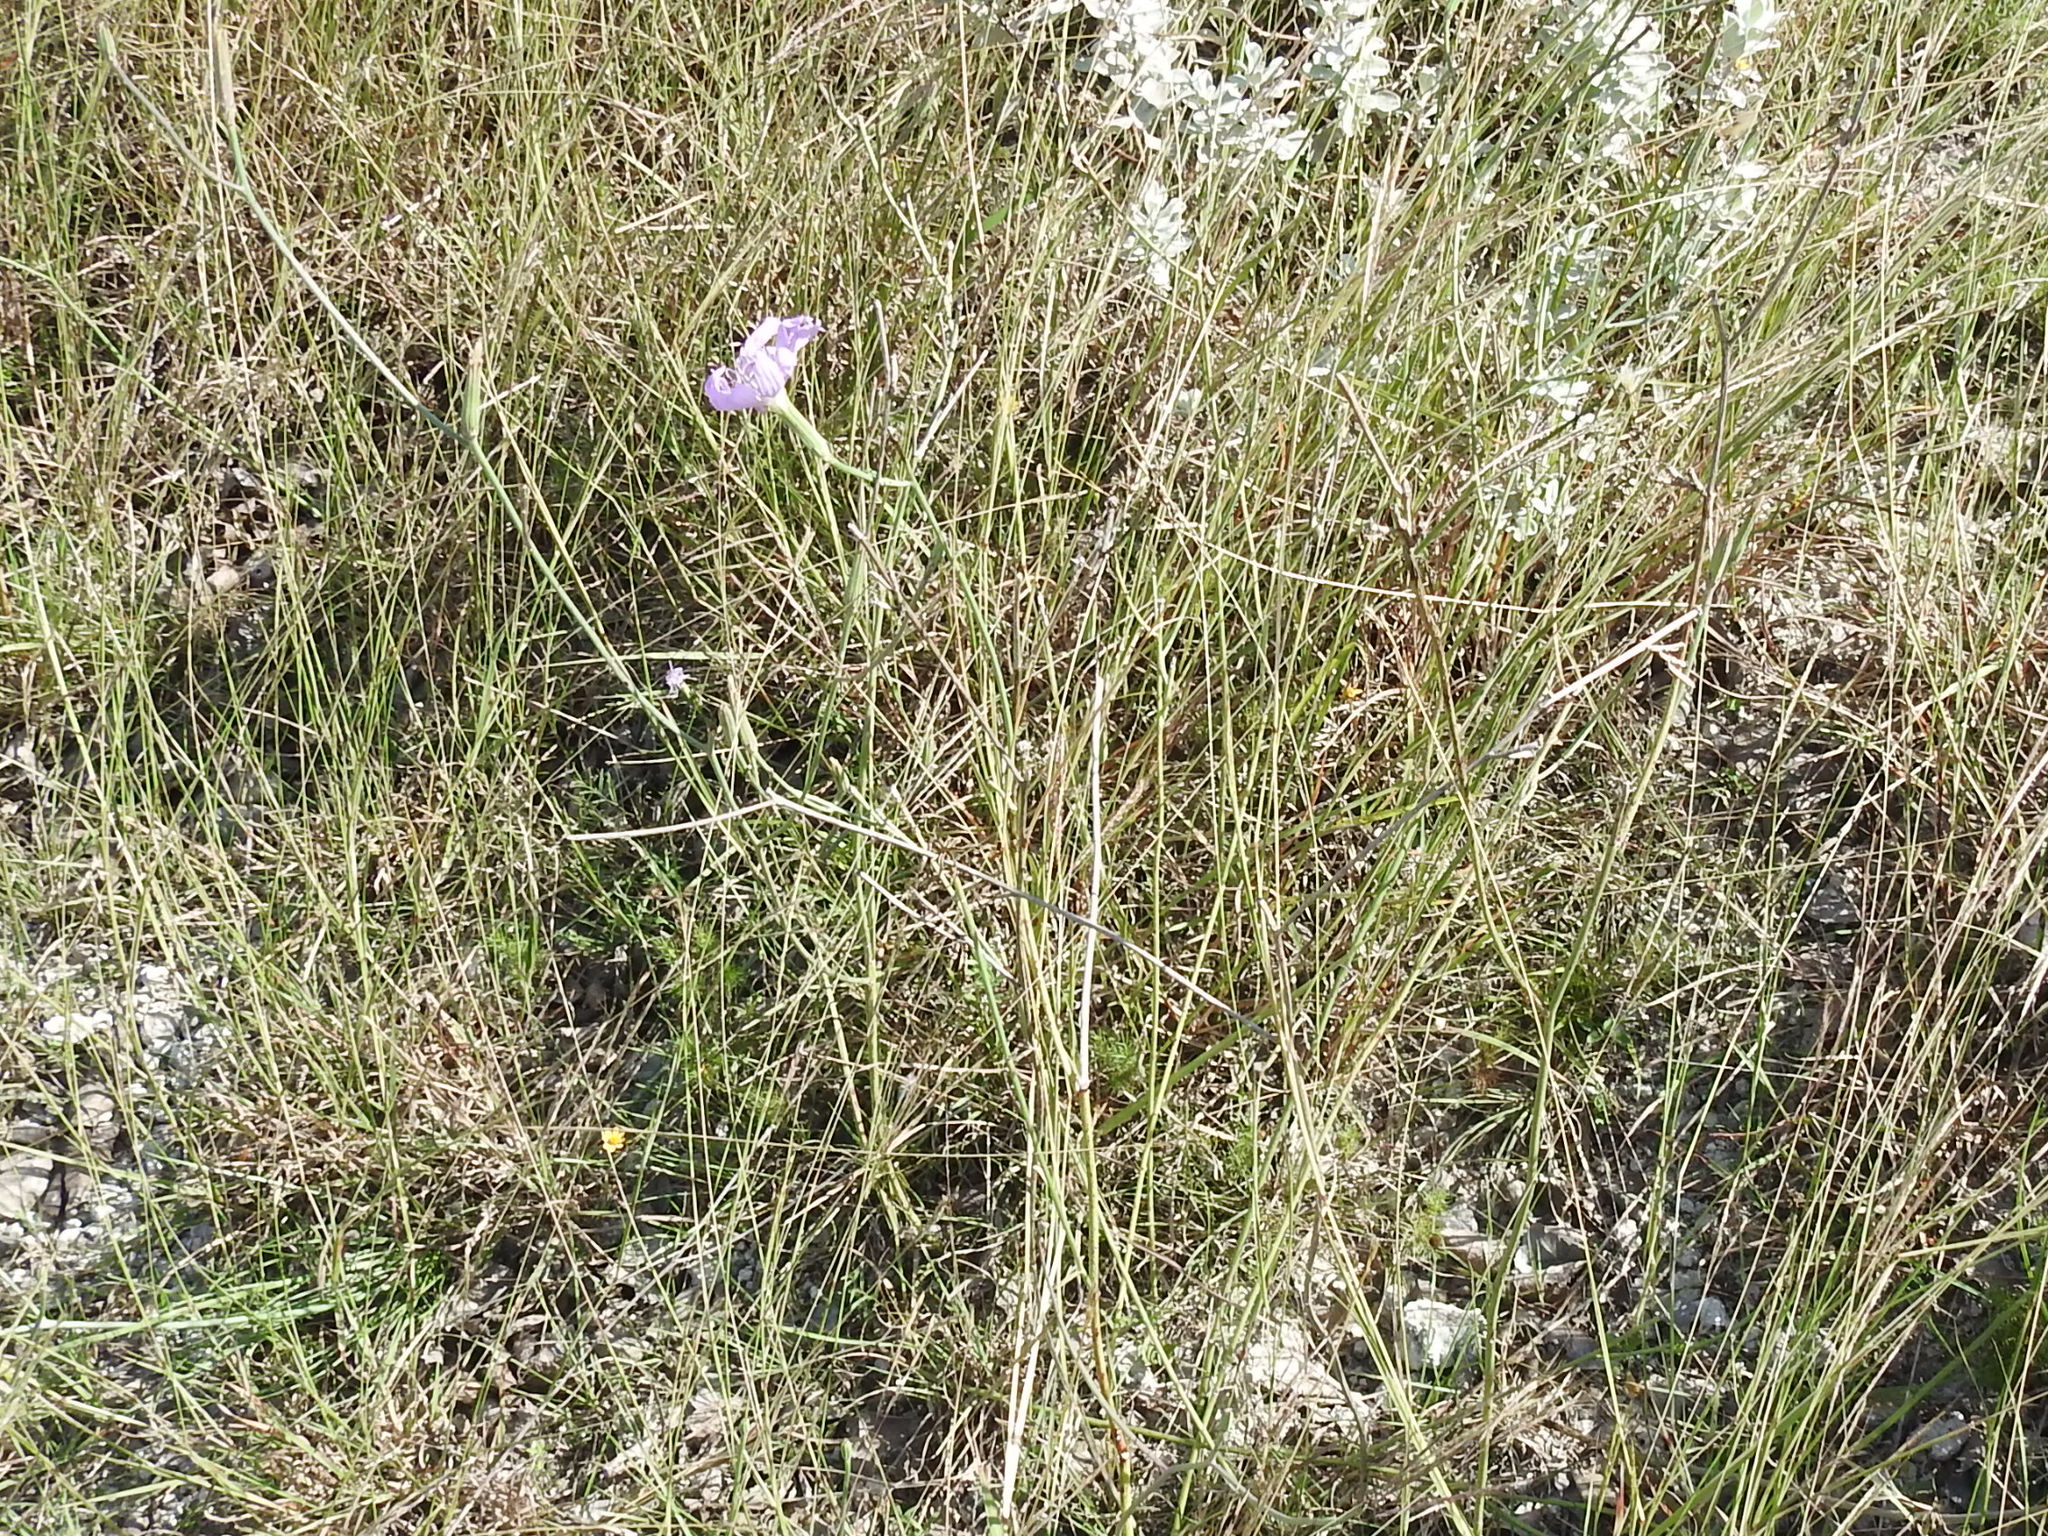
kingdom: Plantae
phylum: Tracheophyta
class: Magnoliopsida
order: Asterales
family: Asteraceae
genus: Lygodesmia
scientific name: Lygodesmia texana
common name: Texas skeleton-plant
